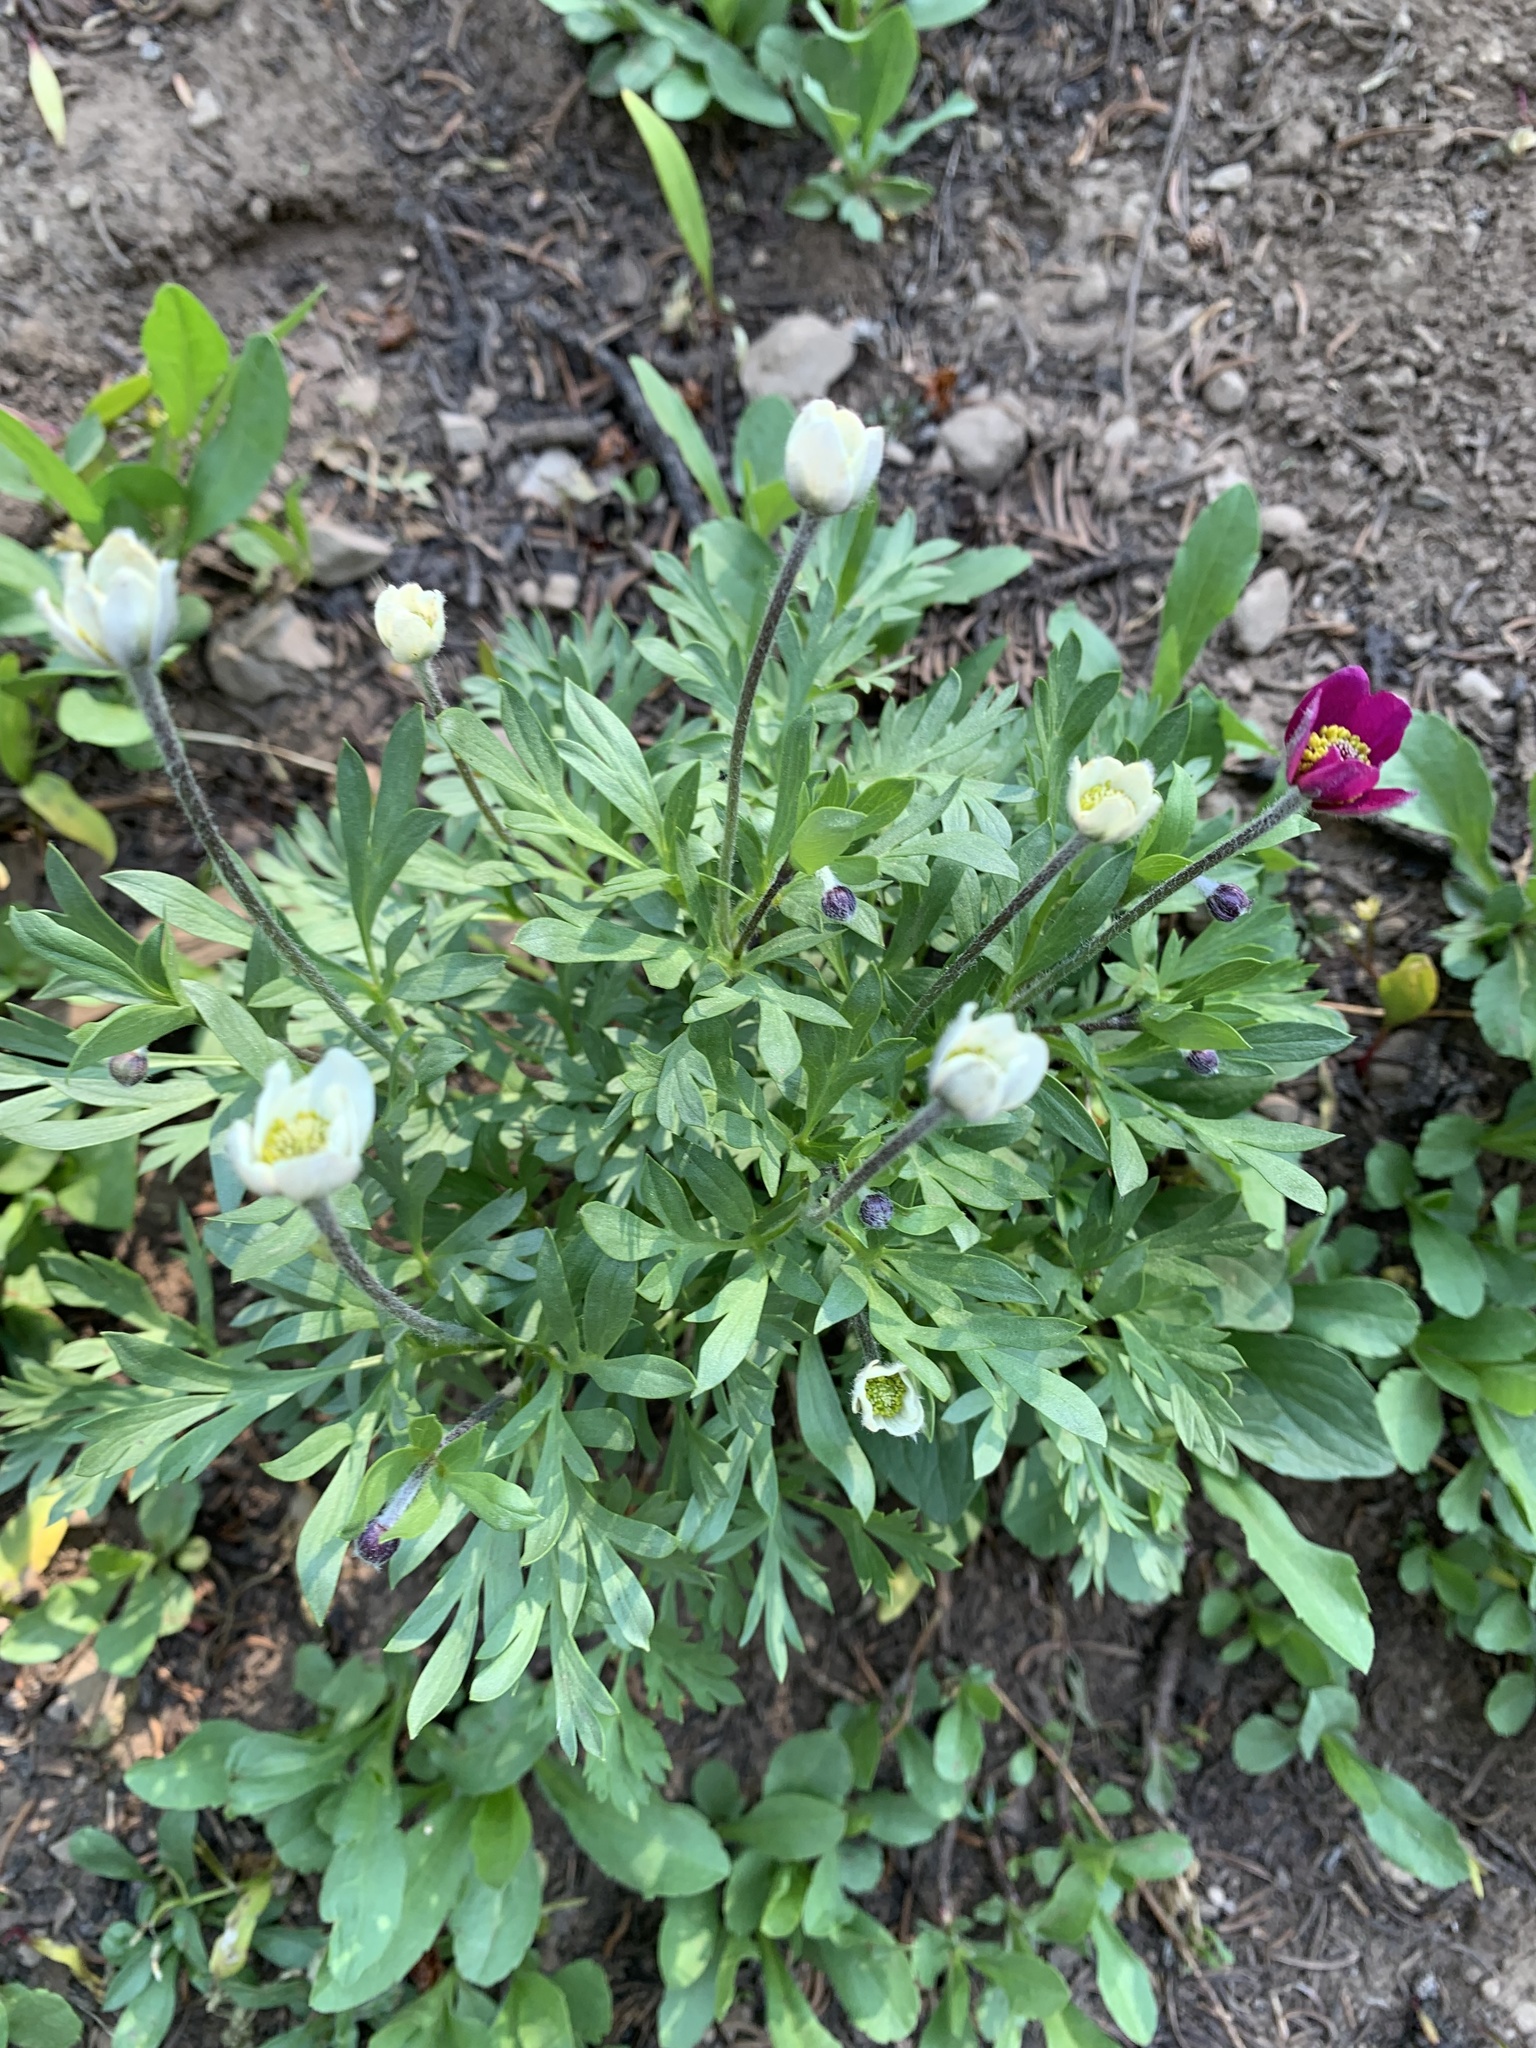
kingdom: Plantae
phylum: Tracheophyta
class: Magnoliopsida
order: Ranunculales
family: Ranunculaceae
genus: Anemone
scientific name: Anemone multifida
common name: Bird's-foot anemone
